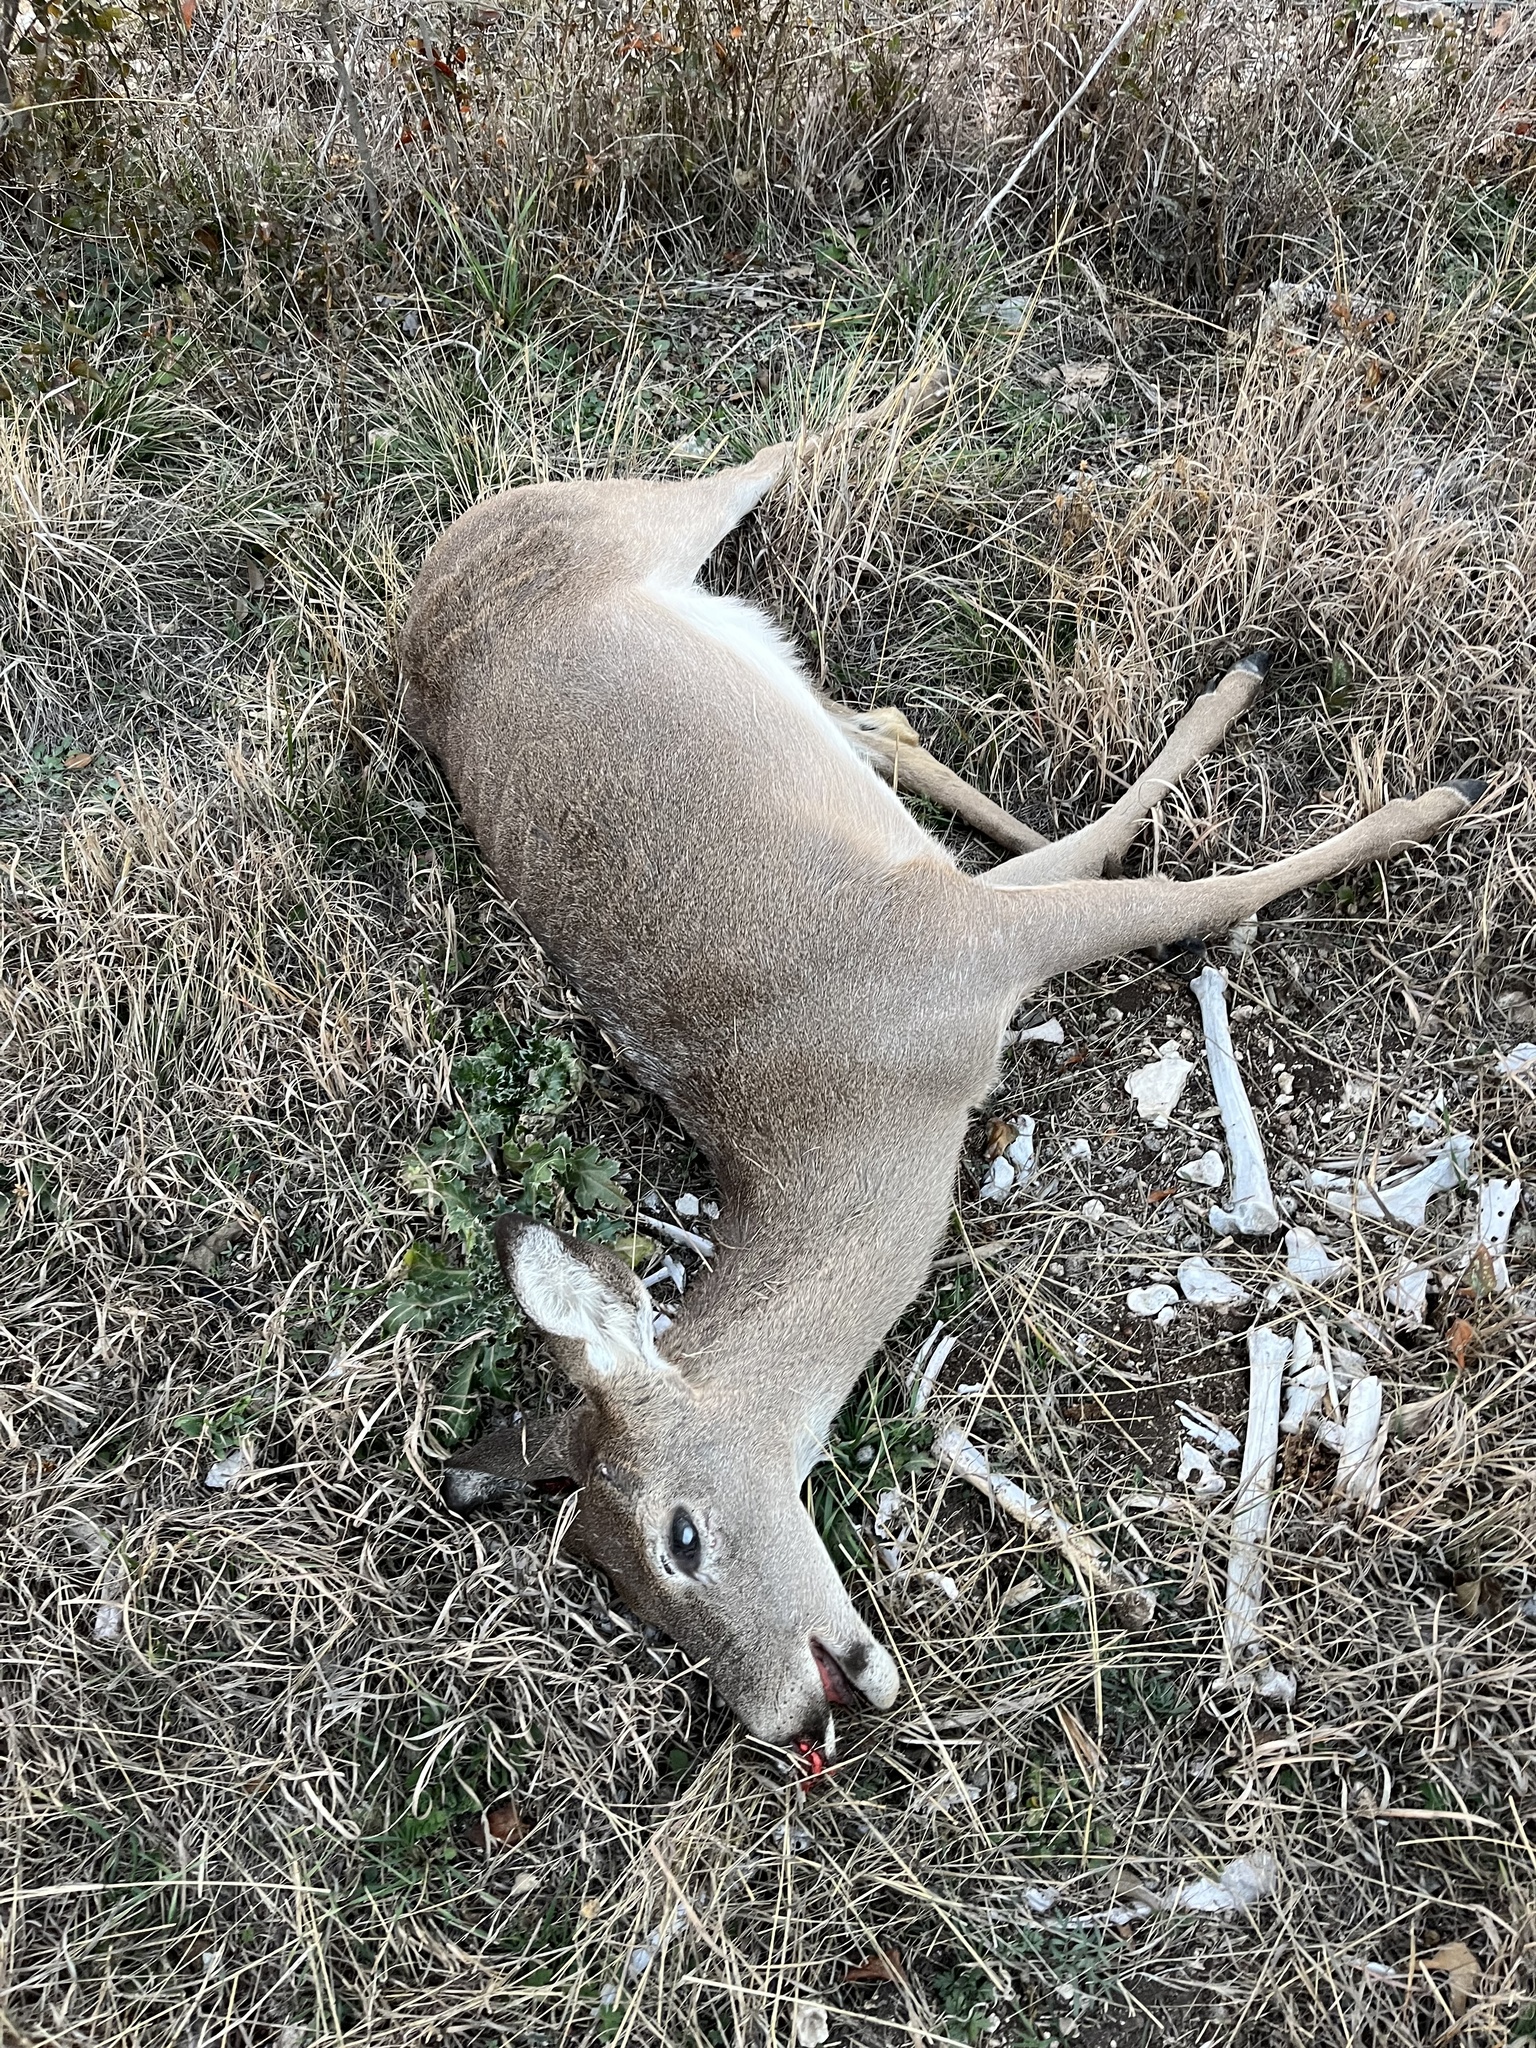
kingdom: Animalia
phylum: Chordata
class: Mammalia
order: Artiodactyla
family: Cervidae
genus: Odocoileus
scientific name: Odocoileus virginianus
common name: White-tailed deer
